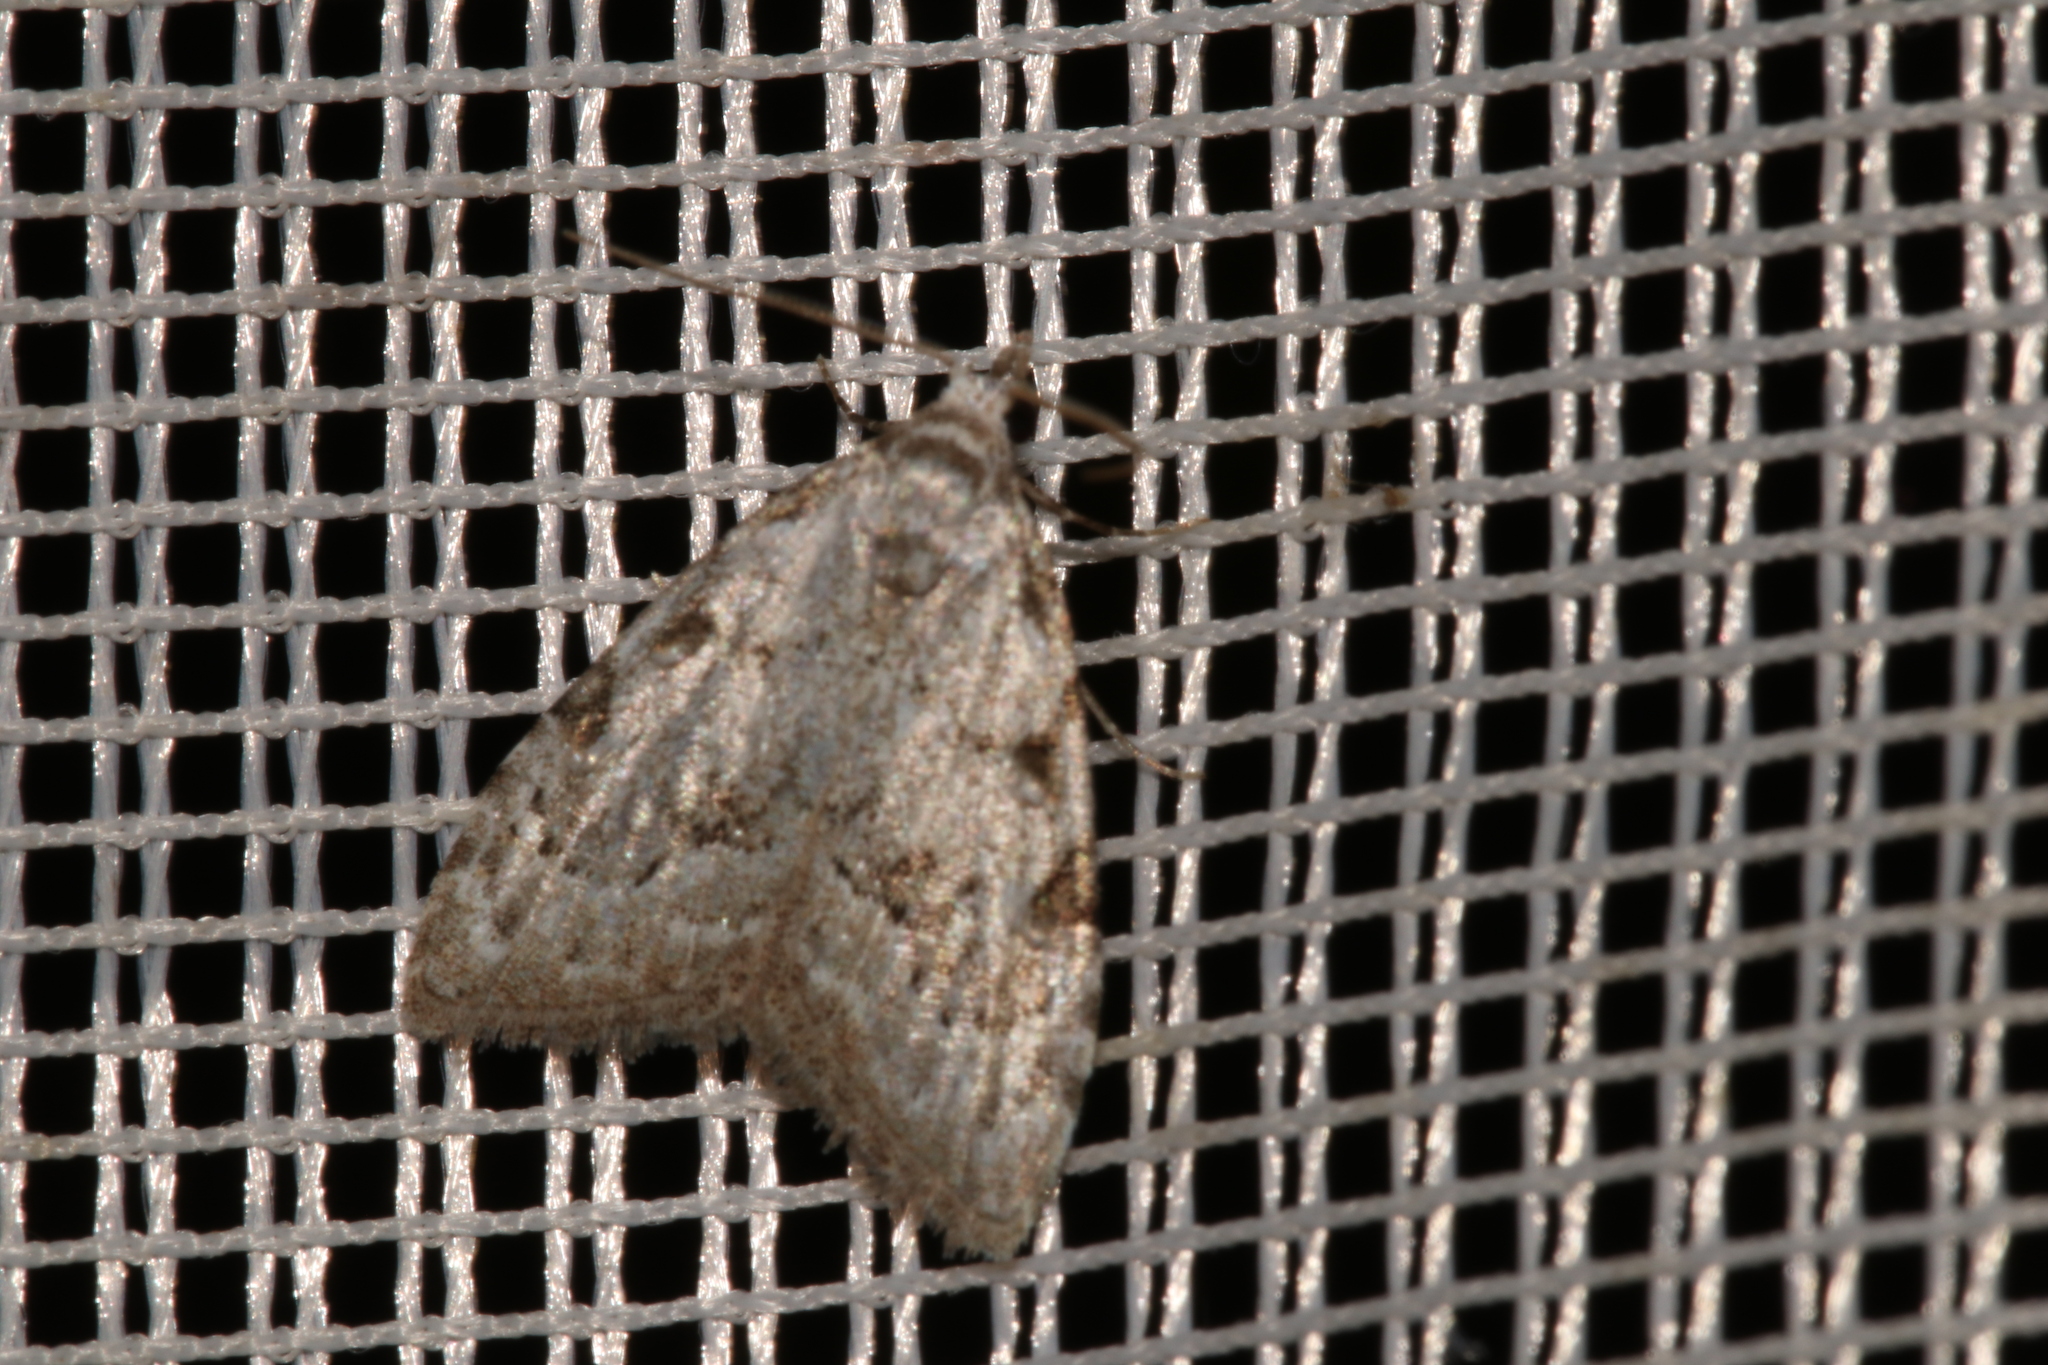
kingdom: Animalia
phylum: Arthropoda
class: Insecta
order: Lepidoptera
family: Nolidae
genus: Nola
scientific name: Nola confusalis
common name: Least black arches
